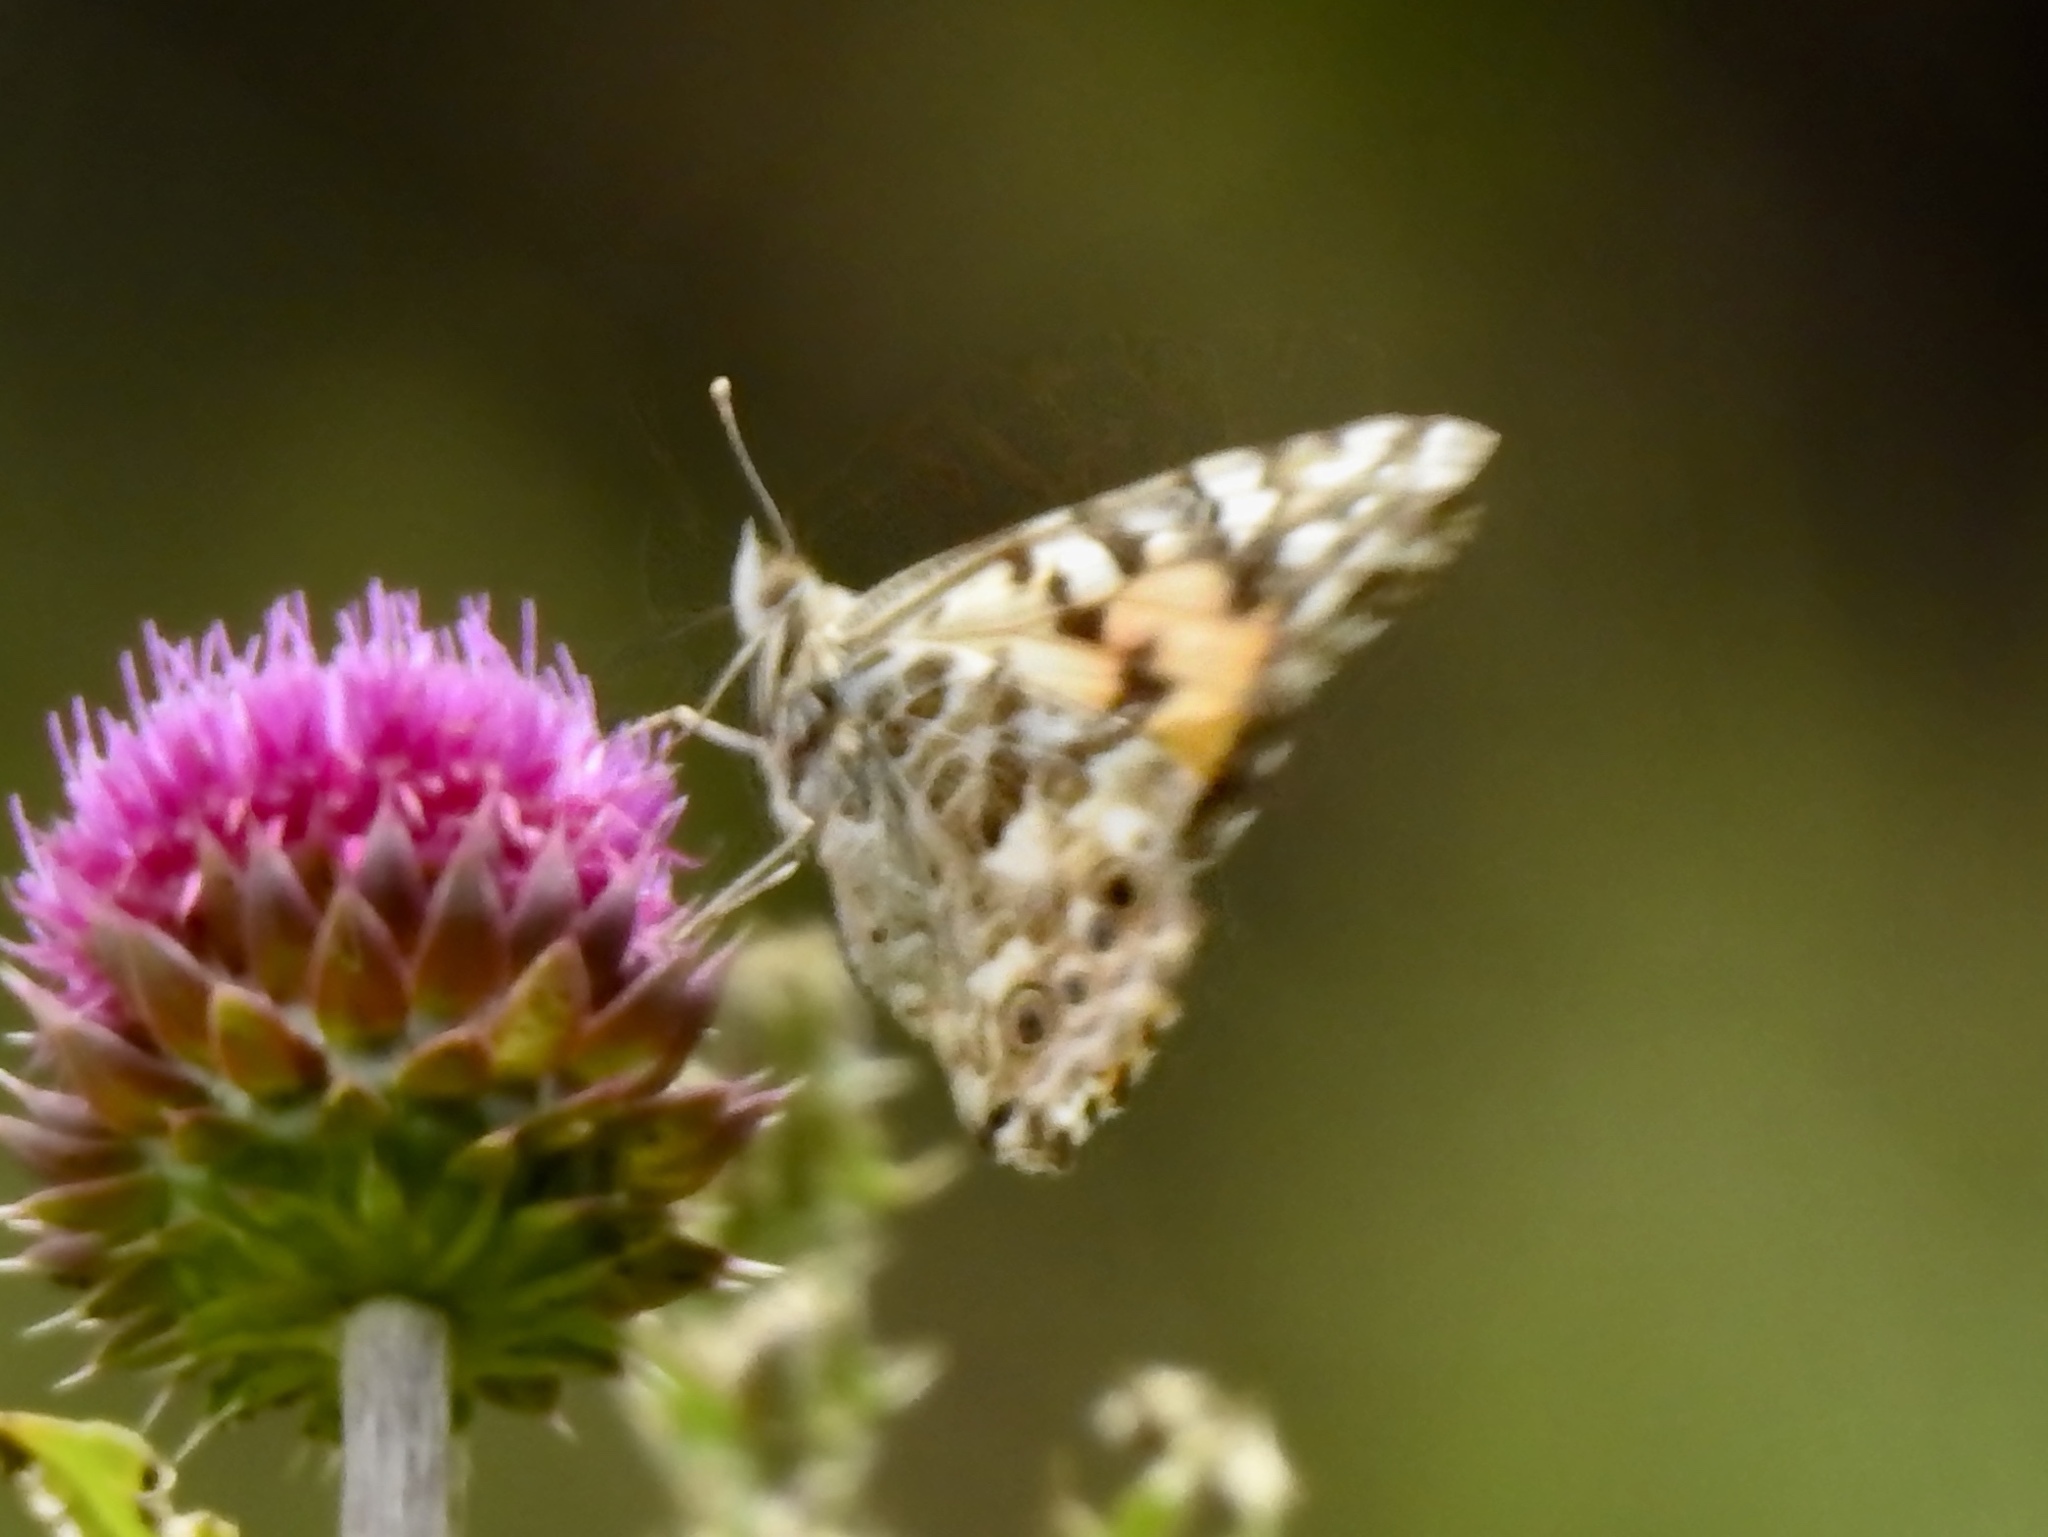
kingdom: Animalia
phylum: Arthropoda
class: Insecta
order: Lepidoptera
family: Nymphalidae
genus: Vanessa
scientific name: Vanessa cardui
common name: Painted lady
